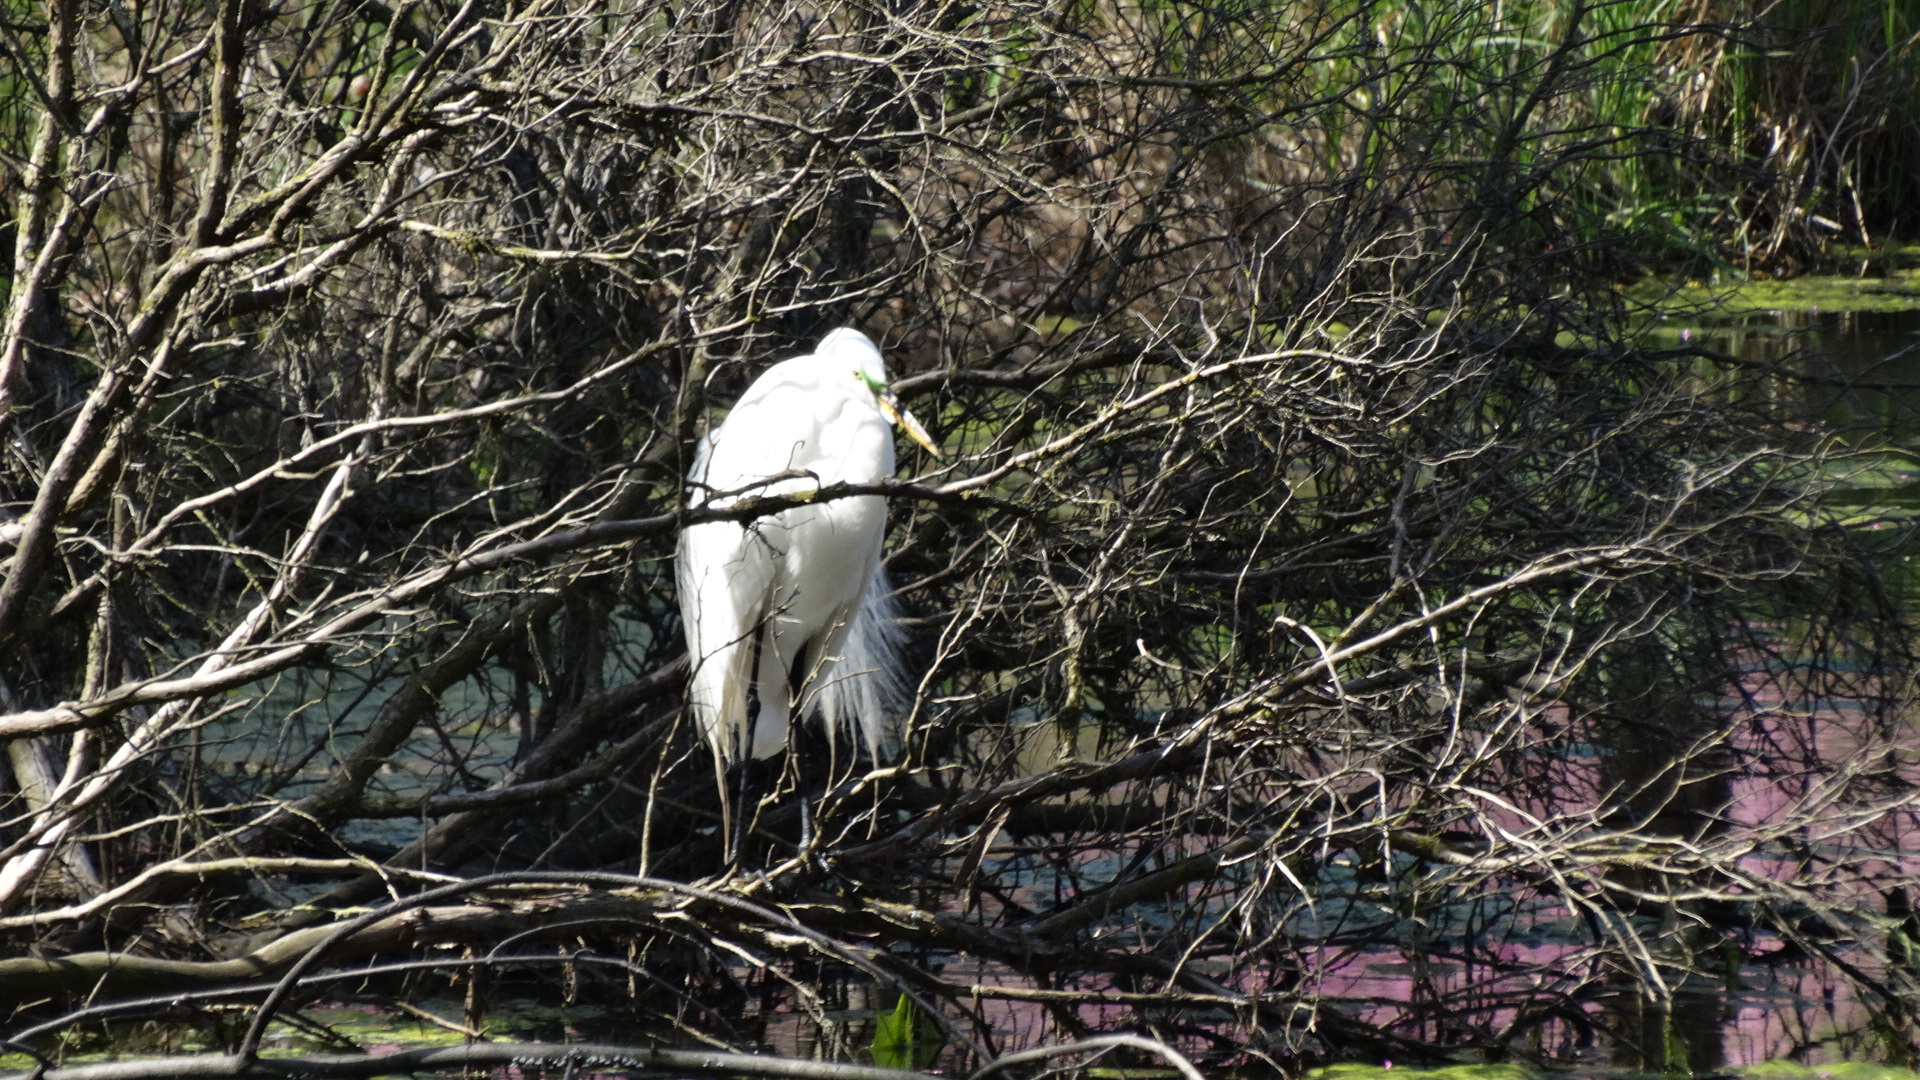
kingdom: Animalia
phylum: Chordata
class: Aves
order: Pelecaniformes
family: Ardeidae
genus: Ardea
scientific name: Ardea alba
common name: Great egret
